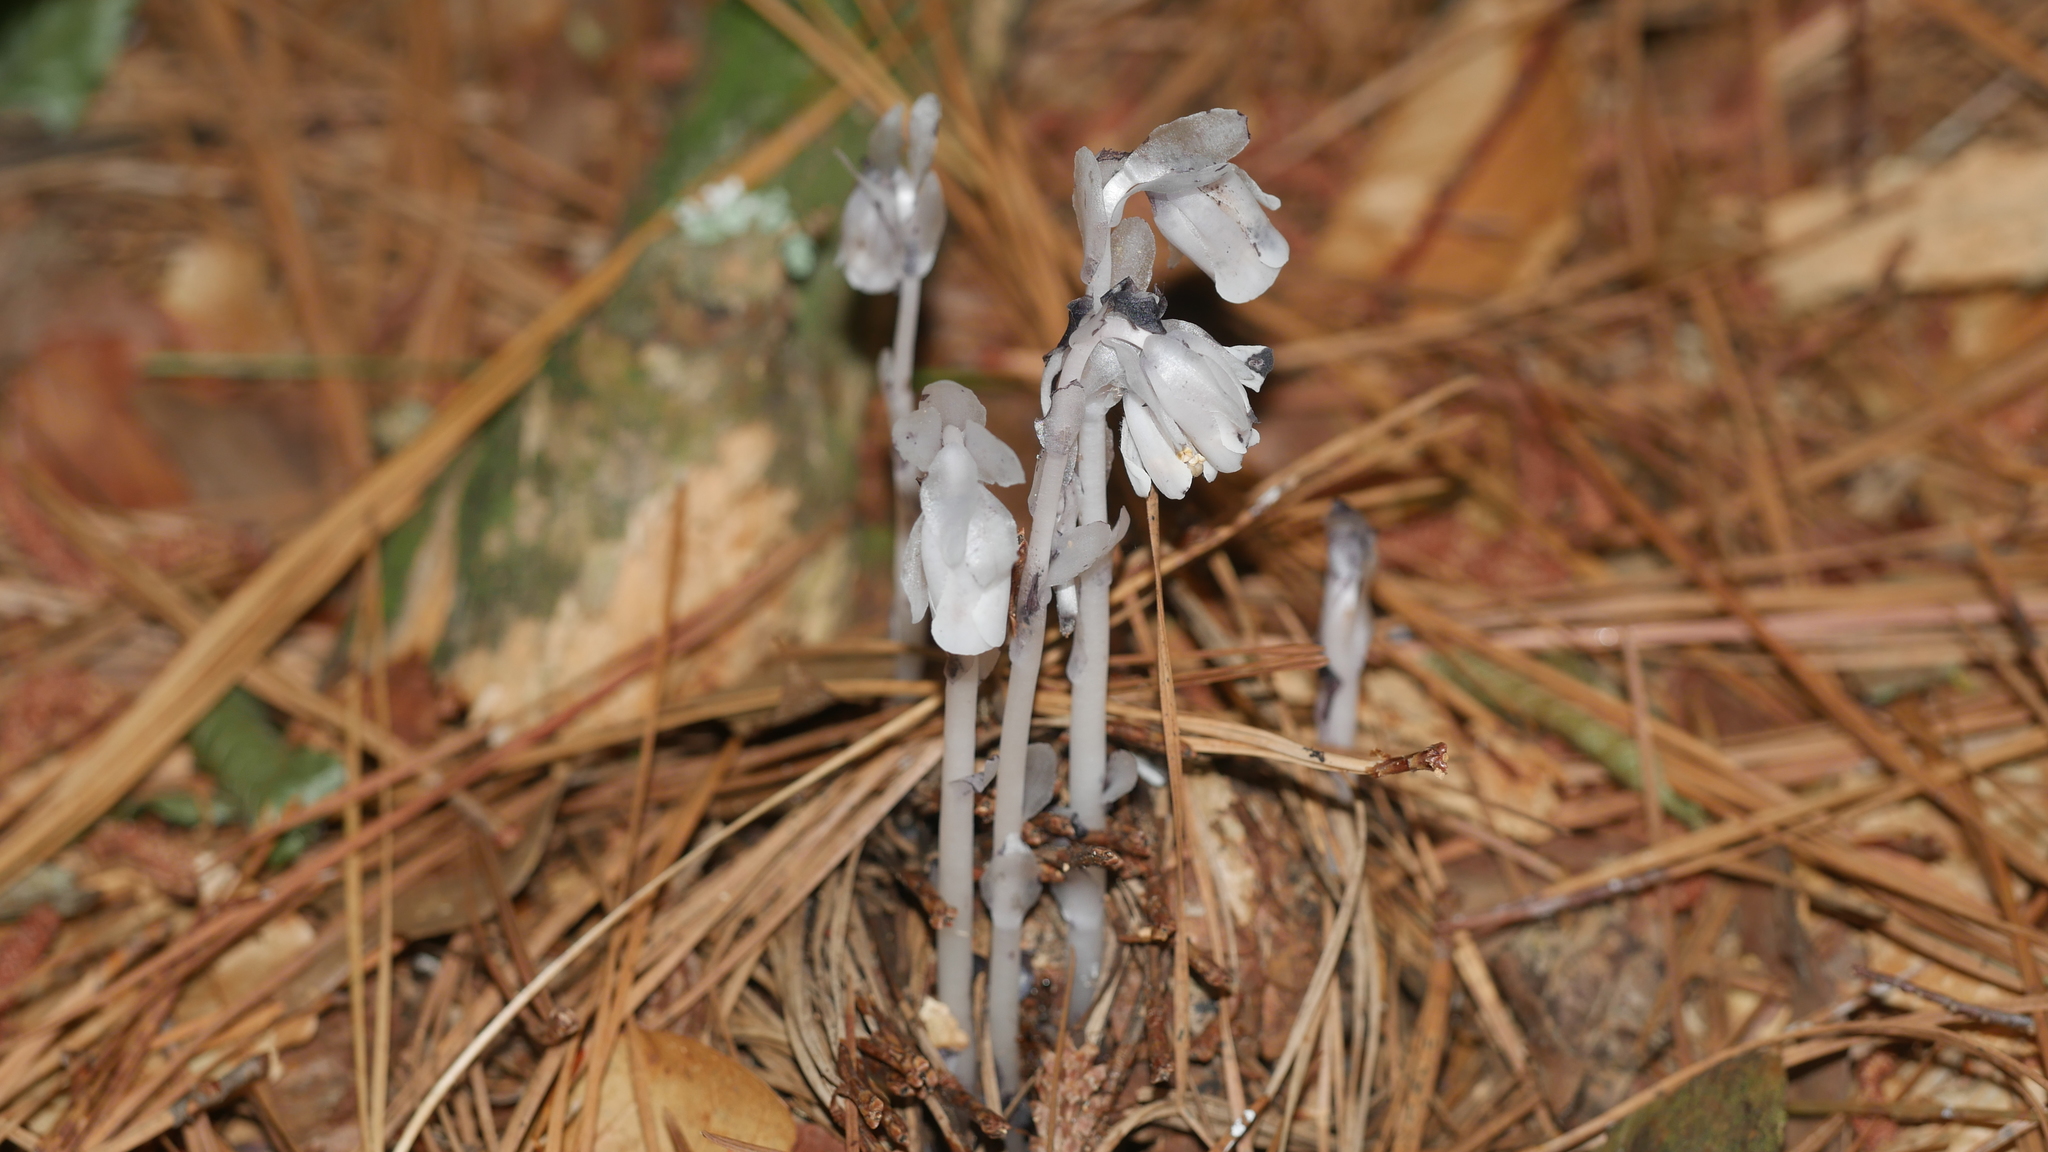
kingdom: Plantae
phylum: Tracheophyta
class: Magnoliopsida
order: Ericales
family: Ericaceae
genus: Monotropa
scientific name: Monotropa uniflora
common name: Convulsion root
